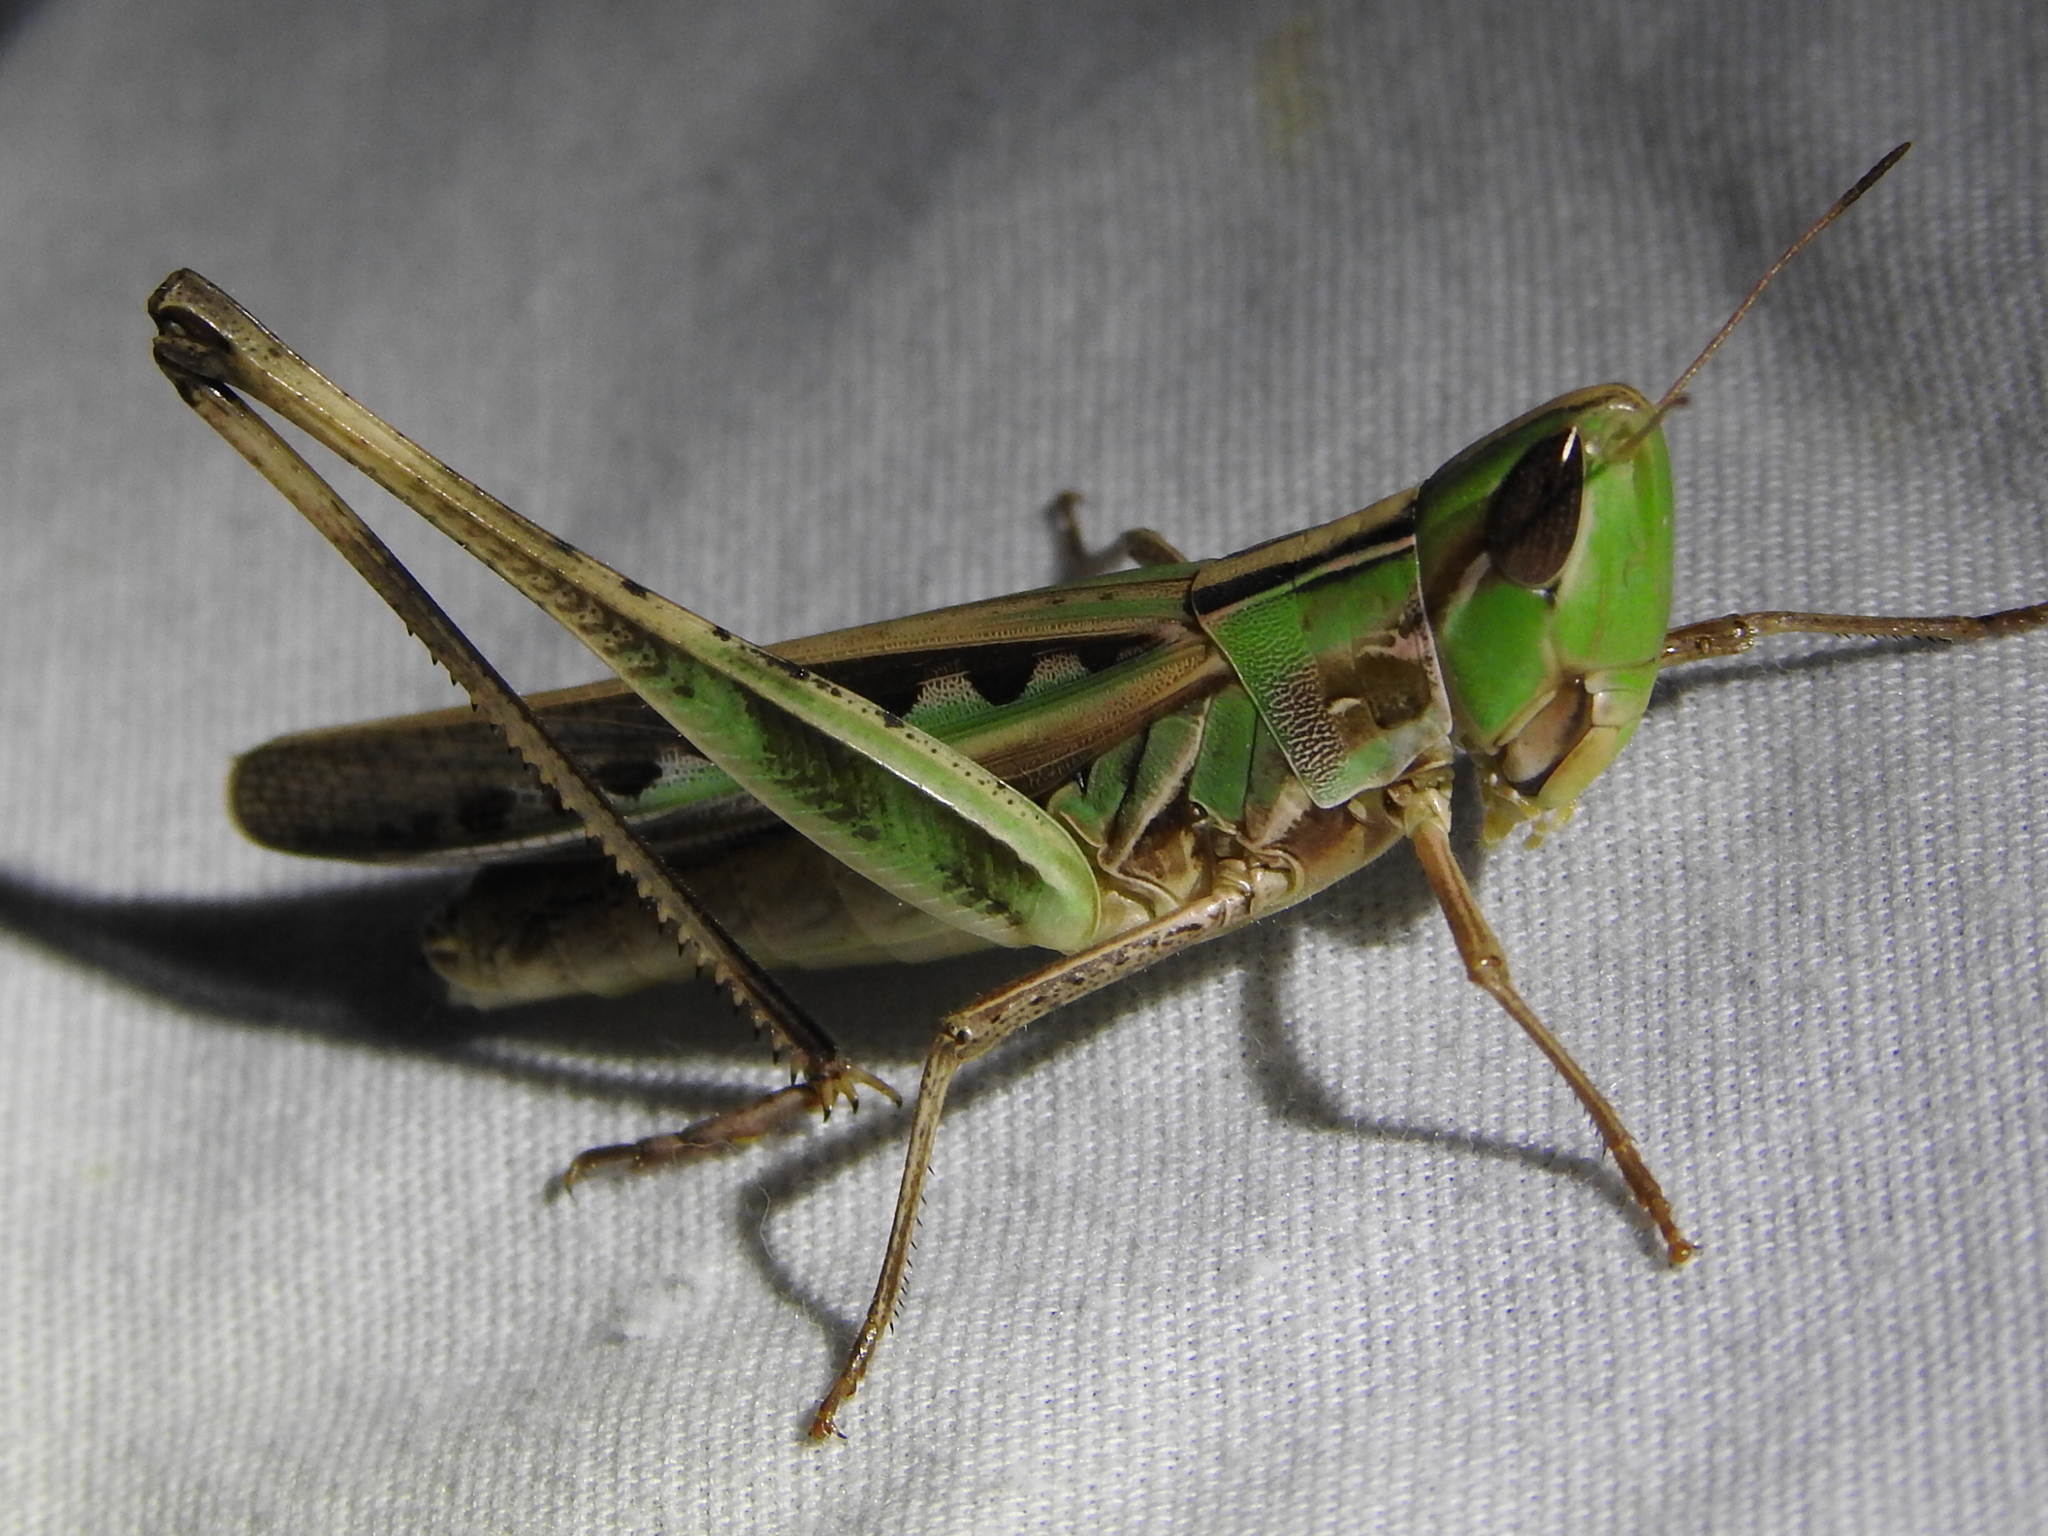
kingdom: Animalia
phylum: Arthropoda
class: Insecta
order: Orthoptera
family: Acrididae
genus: Syrbula
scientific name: Syrbula admirabilis
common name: Handsome grasshopper
